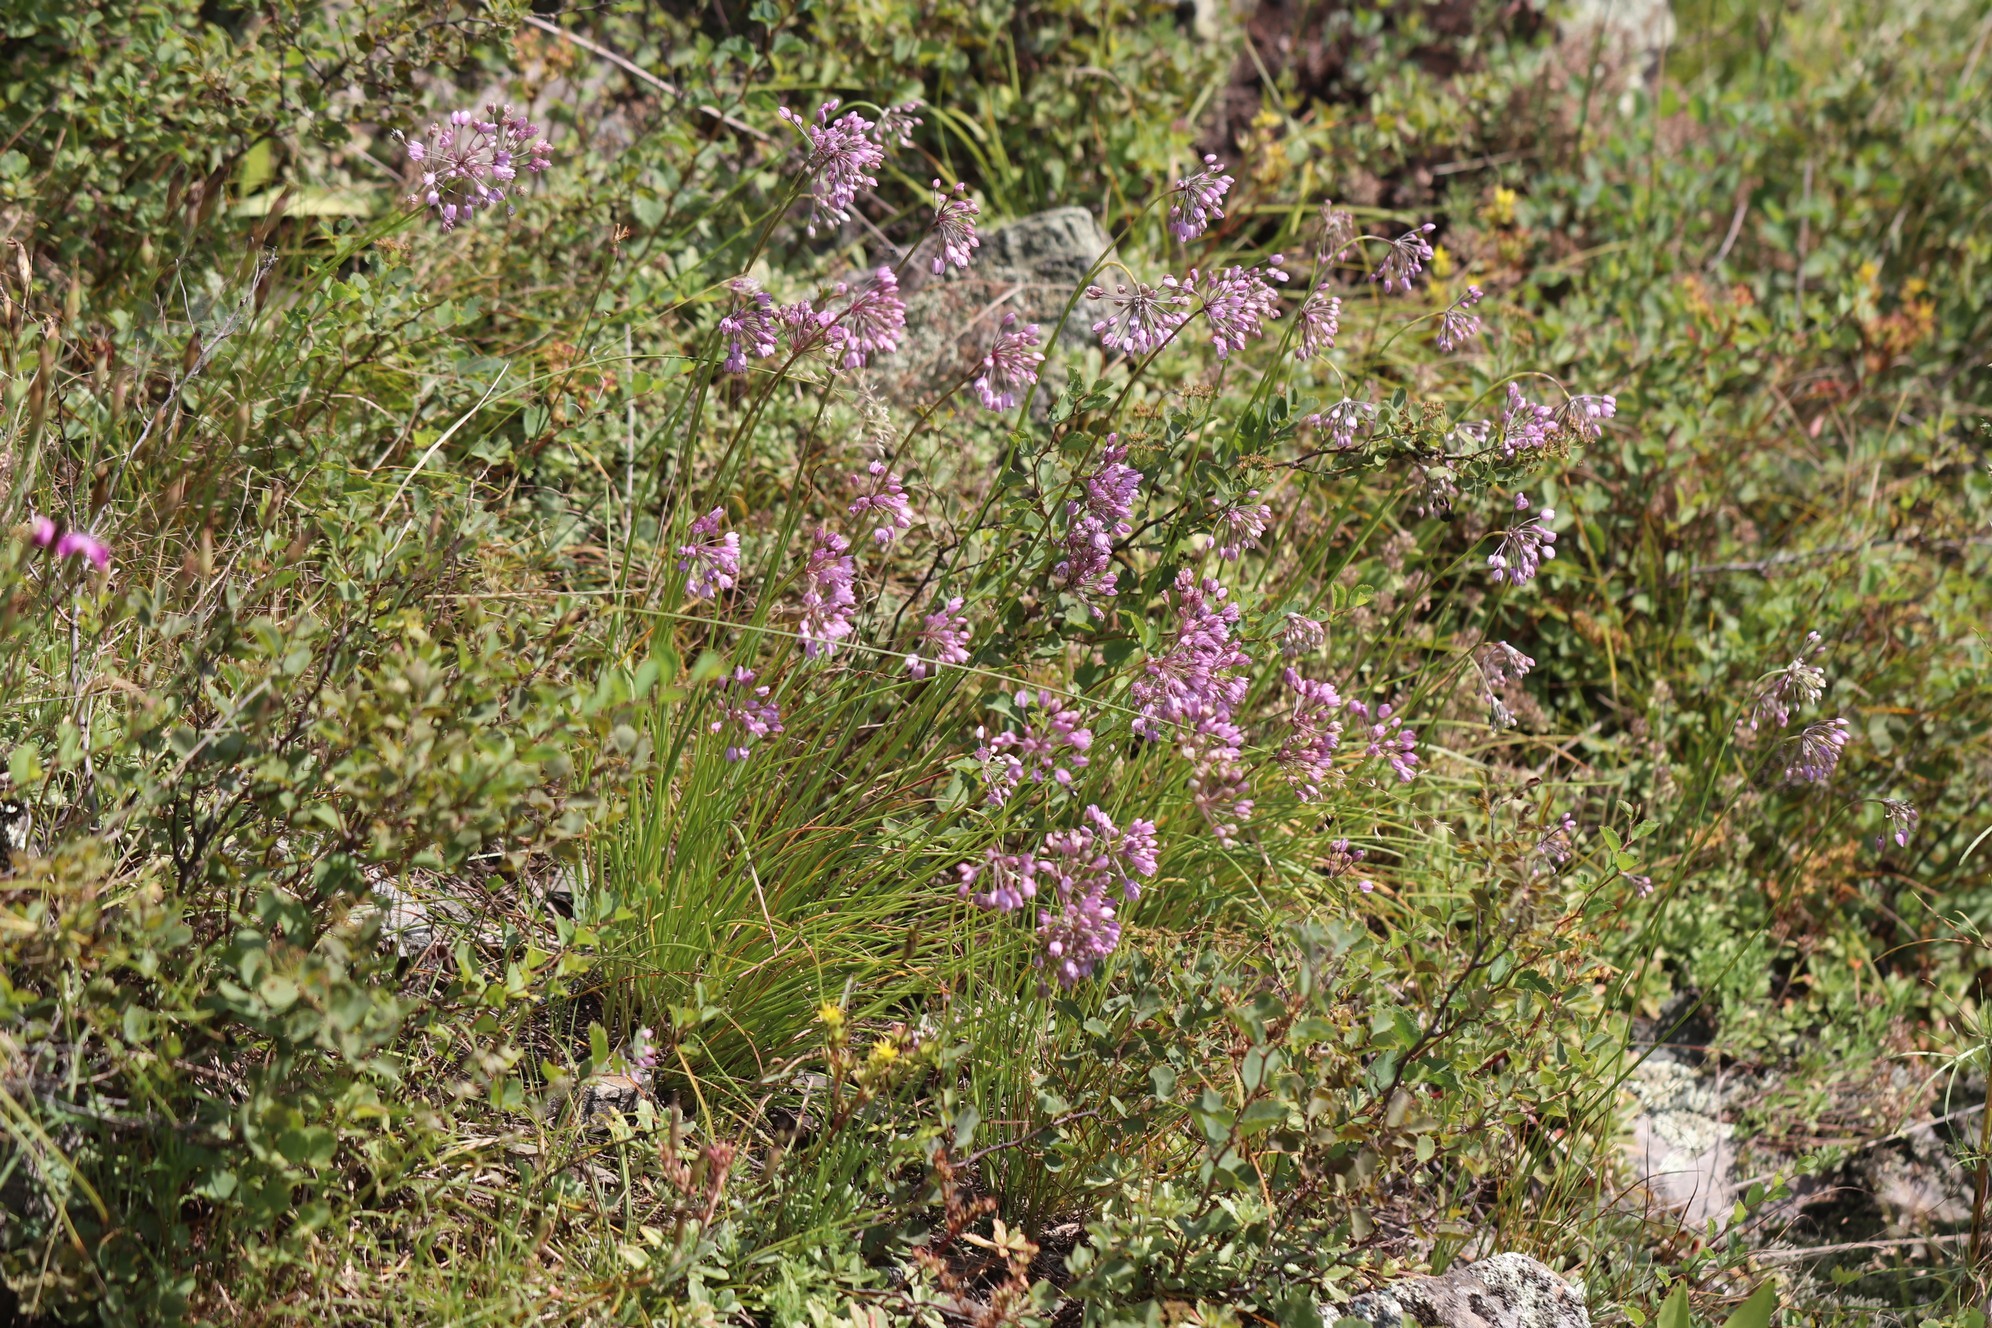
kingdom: Plantae
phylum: Tracheophyta
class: Liliopsida
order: Asparagales
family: Amaryllidaceae
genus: Allium
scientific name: Allium rubens
